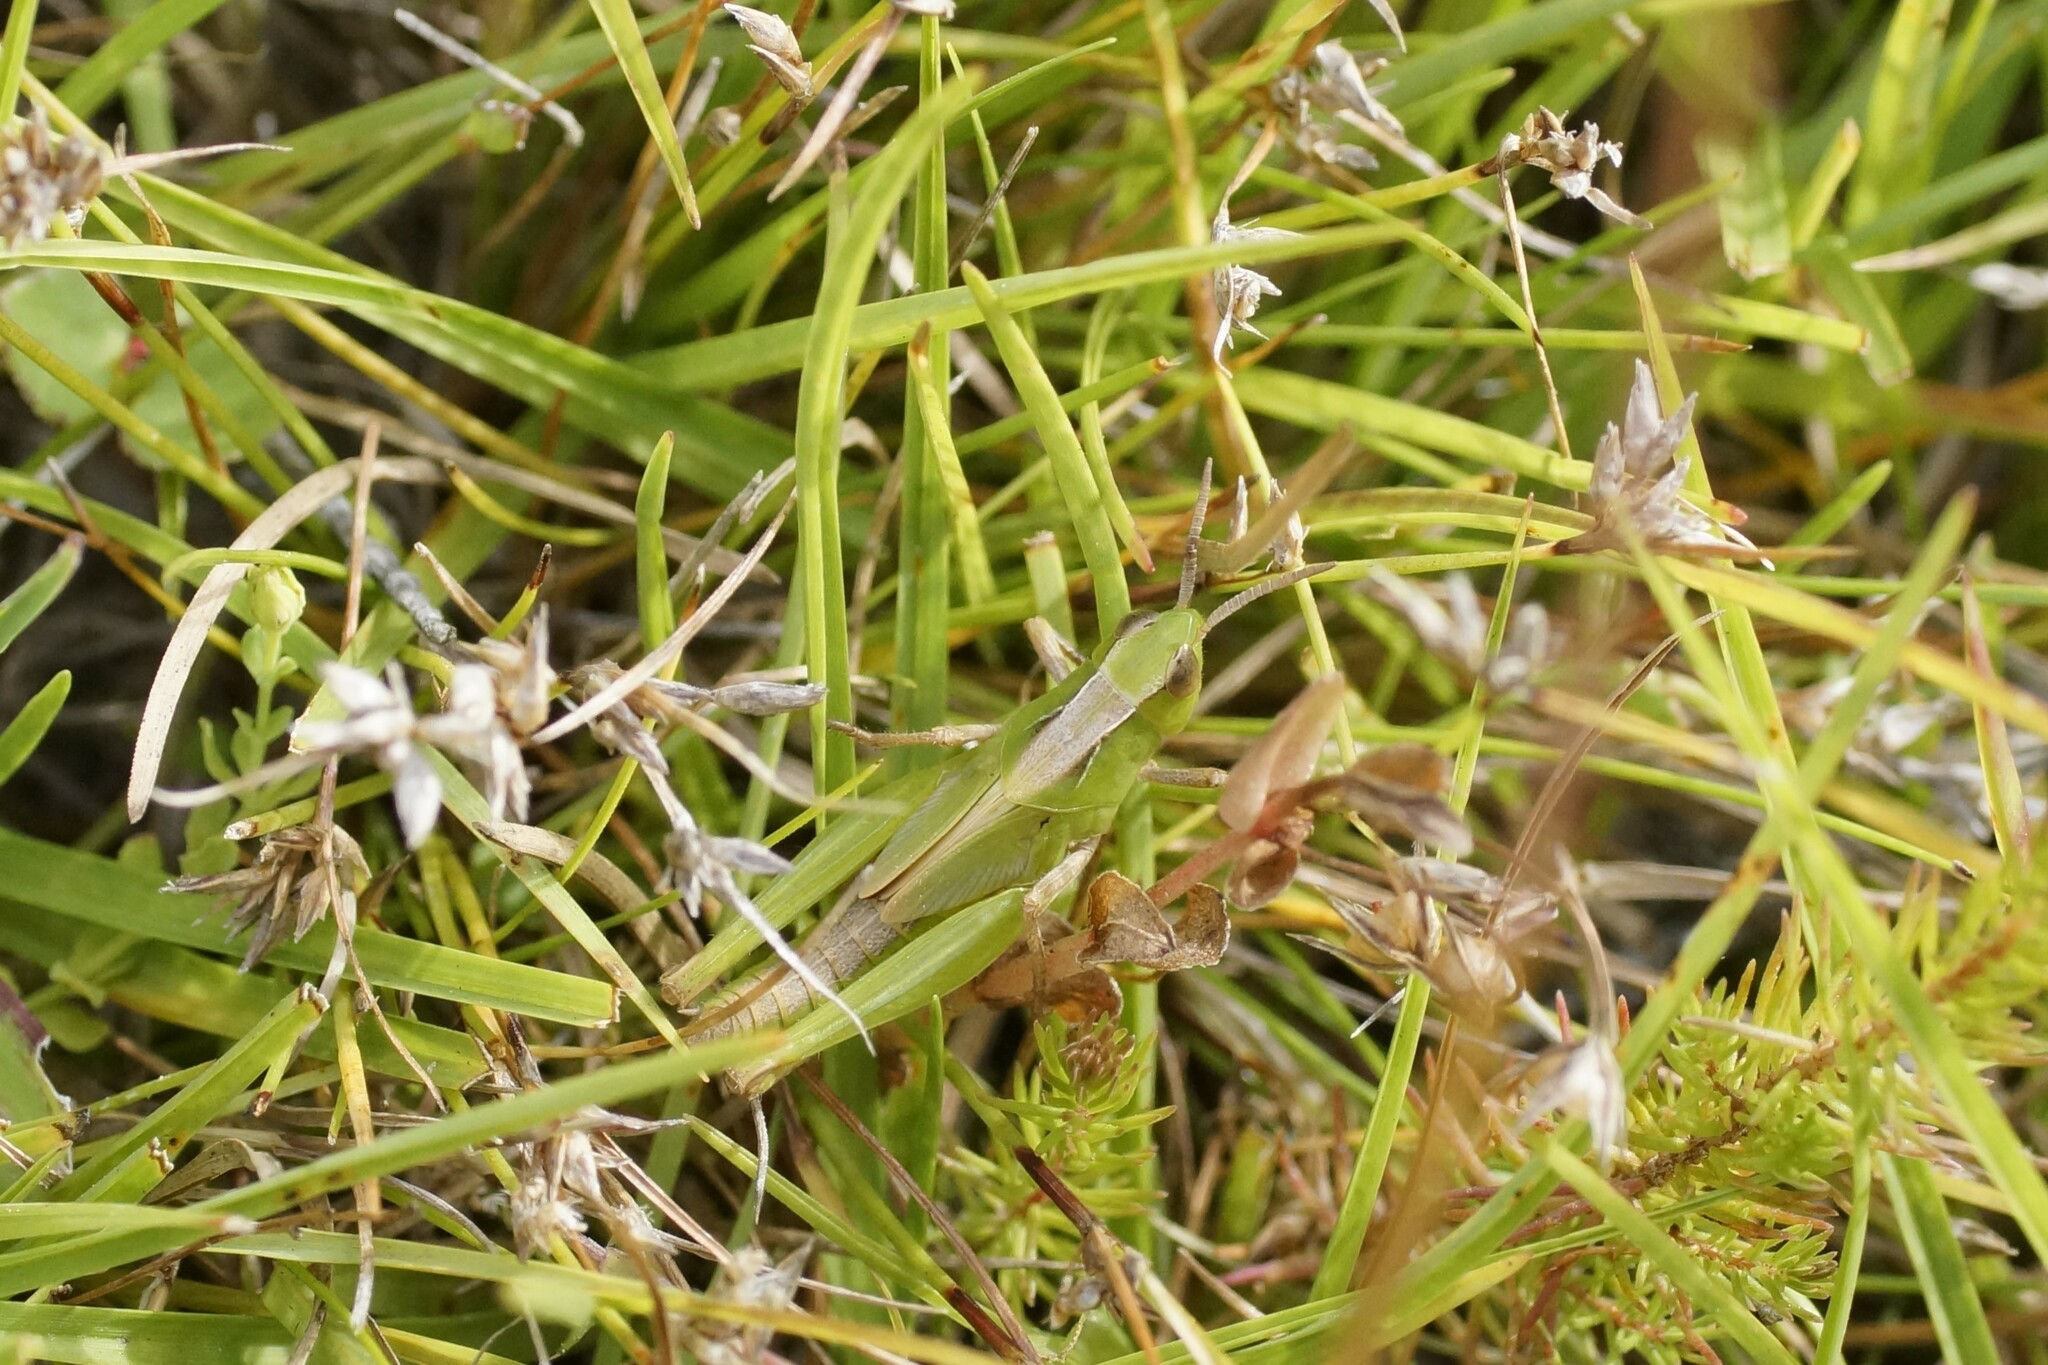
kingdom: Animalia
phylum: Arthropoda
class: Insecta
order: Orthoptera
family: Acrididae
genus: Schizobothrus
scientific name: Schizobothrus flavovittatus
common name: Disappearing grasshopper
